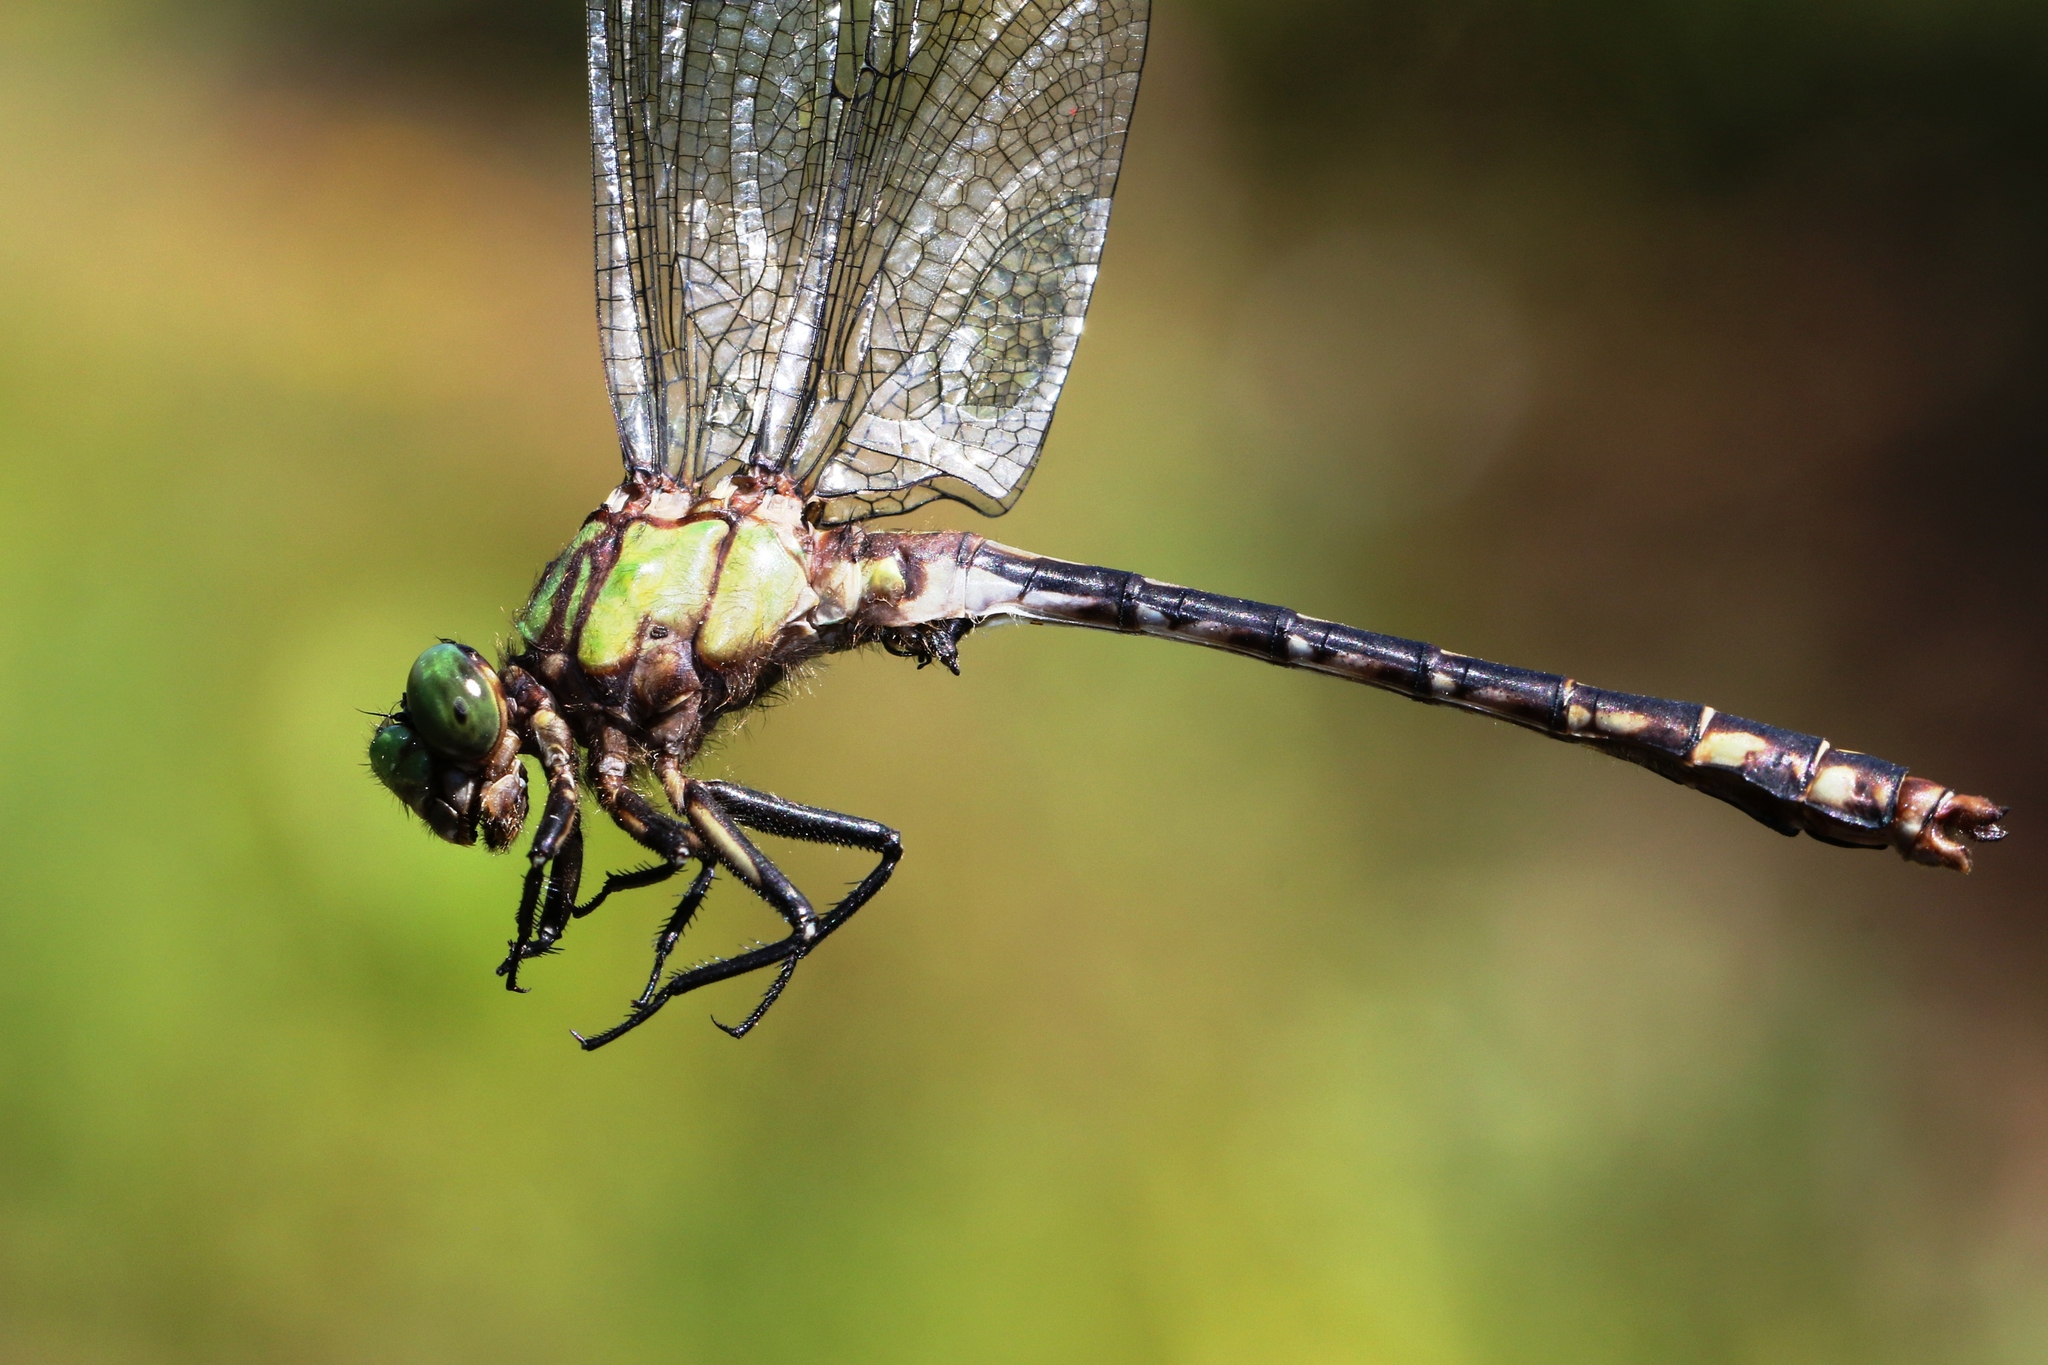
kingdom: Animalia
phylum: Arthropoda
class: Insecta
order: Odonata
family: Gomphidae
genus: Ophiogomphus
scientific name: Ophiogomphus aspersus
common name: Brook snaketail
